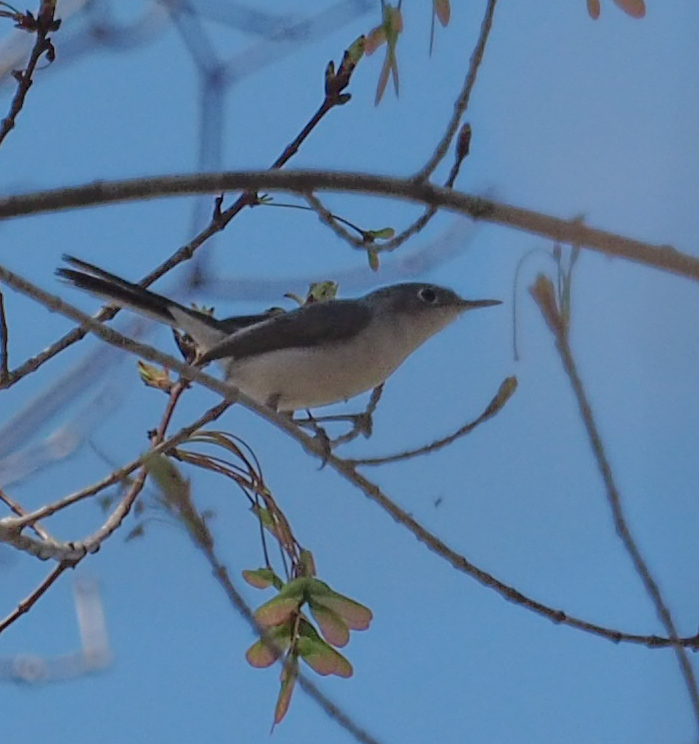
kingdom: Animalia
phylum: Chordata
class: Aves
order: Passeriformes
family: Polioptilidae
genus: Polioptila
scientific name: Polioptila caerulea
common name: Blue-gray gnatcatcher
